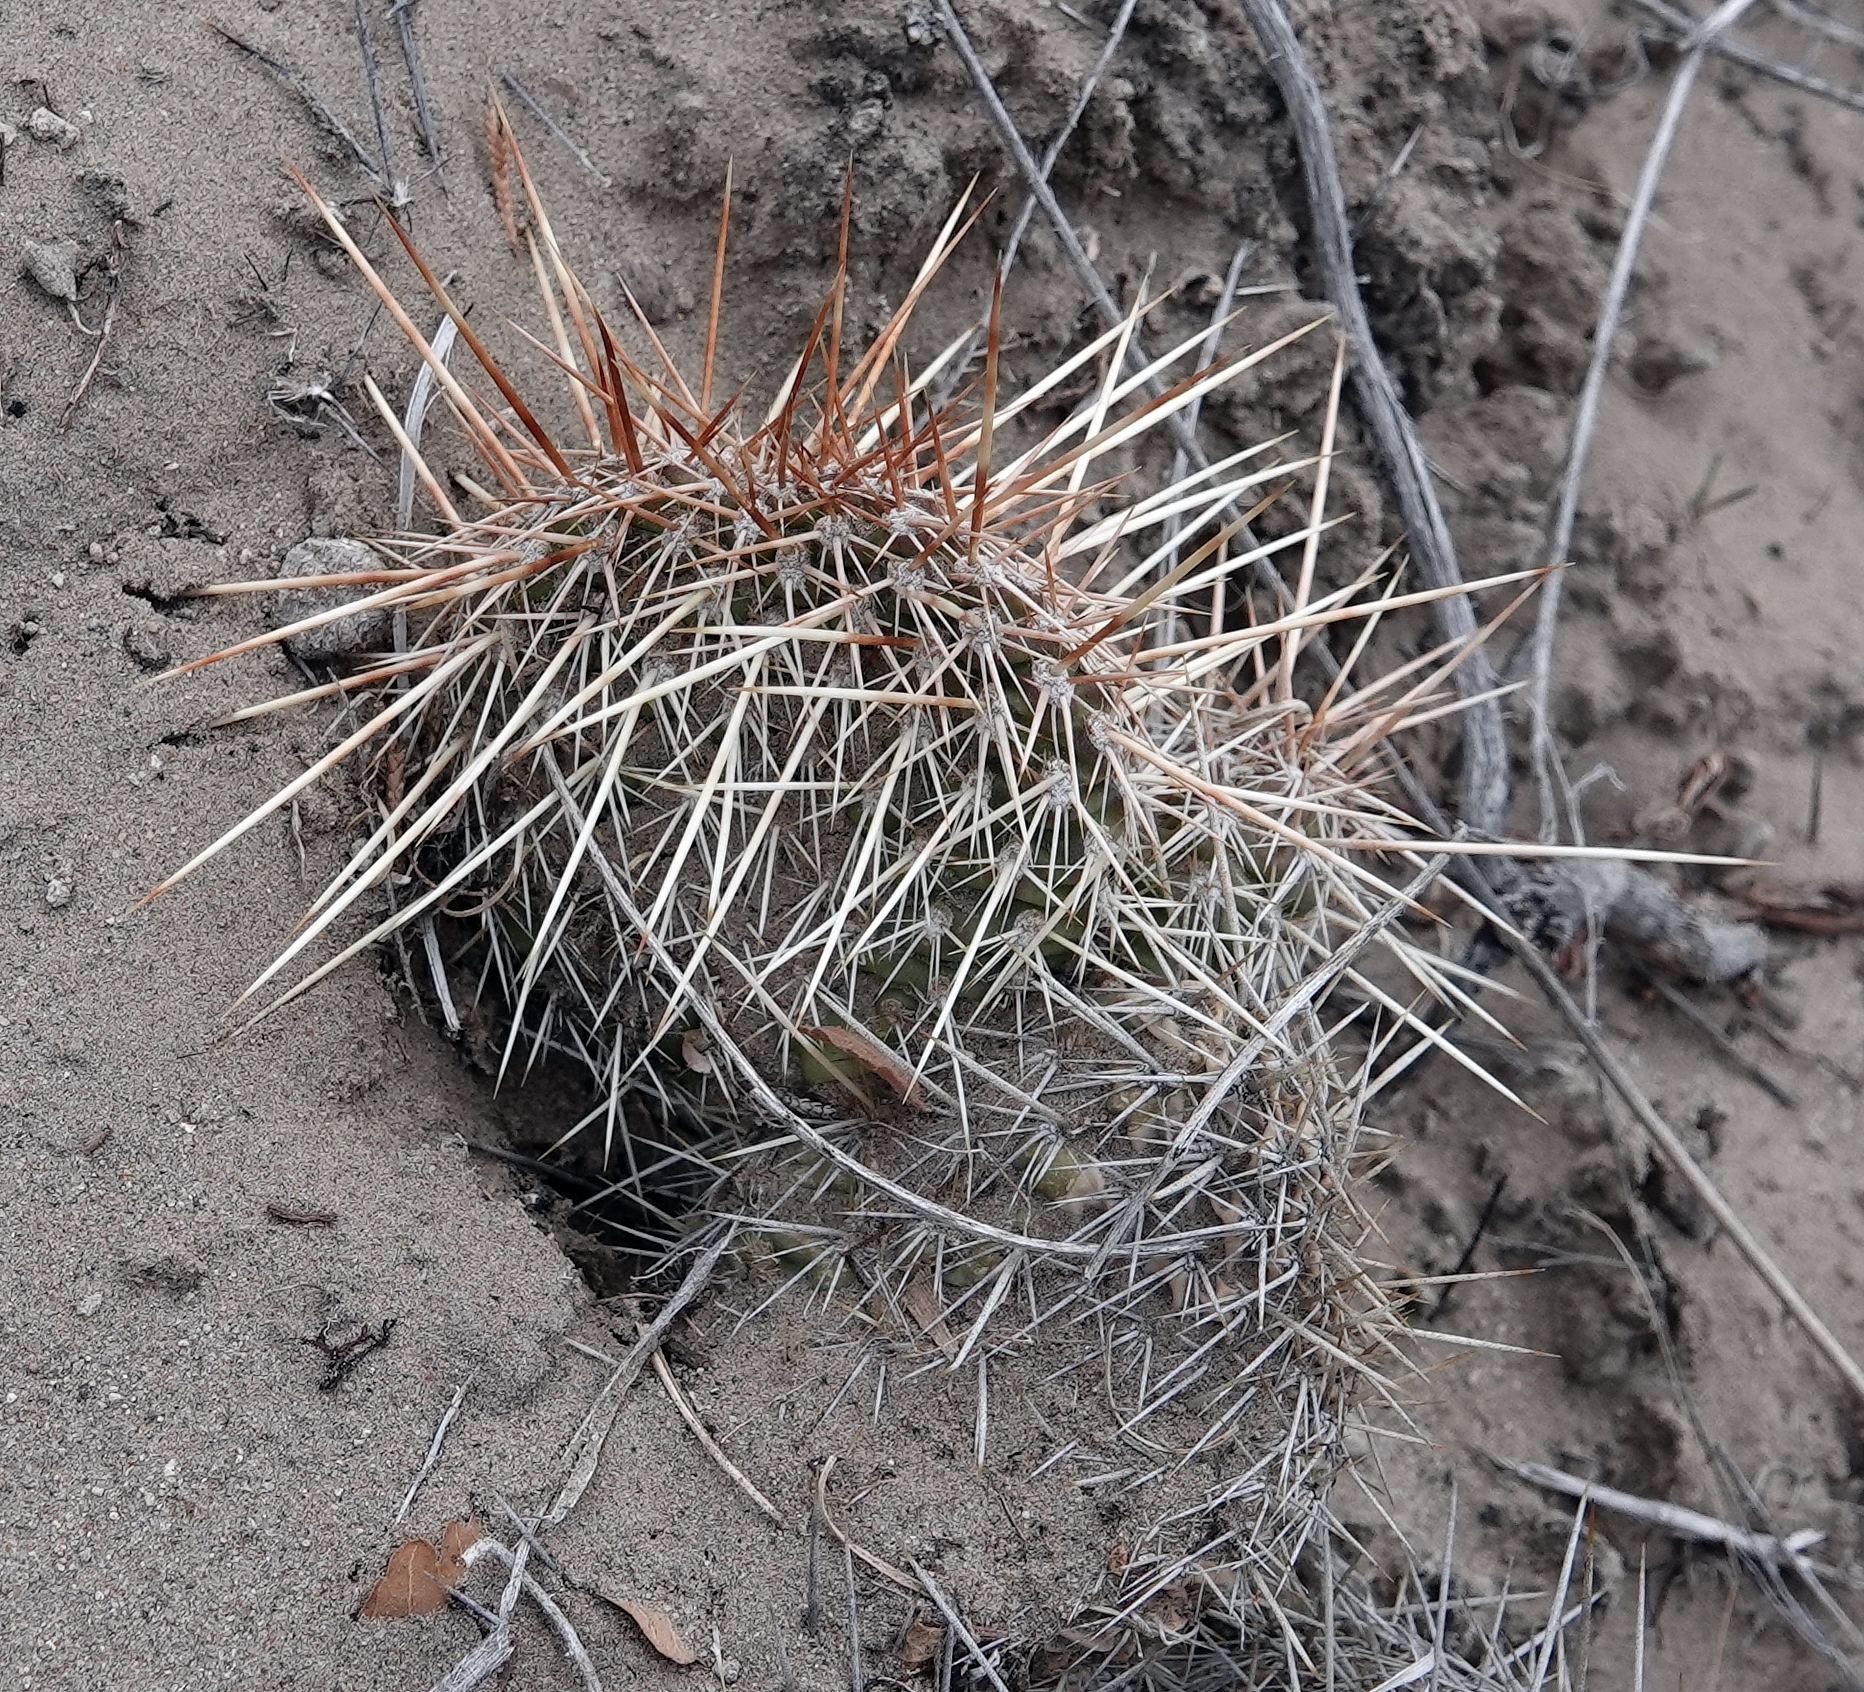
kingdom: Plantae
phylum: Tracheophyta
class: Magnoliopsida
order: Caryophyllales
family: Cactaceae
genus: Opuntia
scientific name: Opuntia polyacantha
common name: Plains prickly-pear
